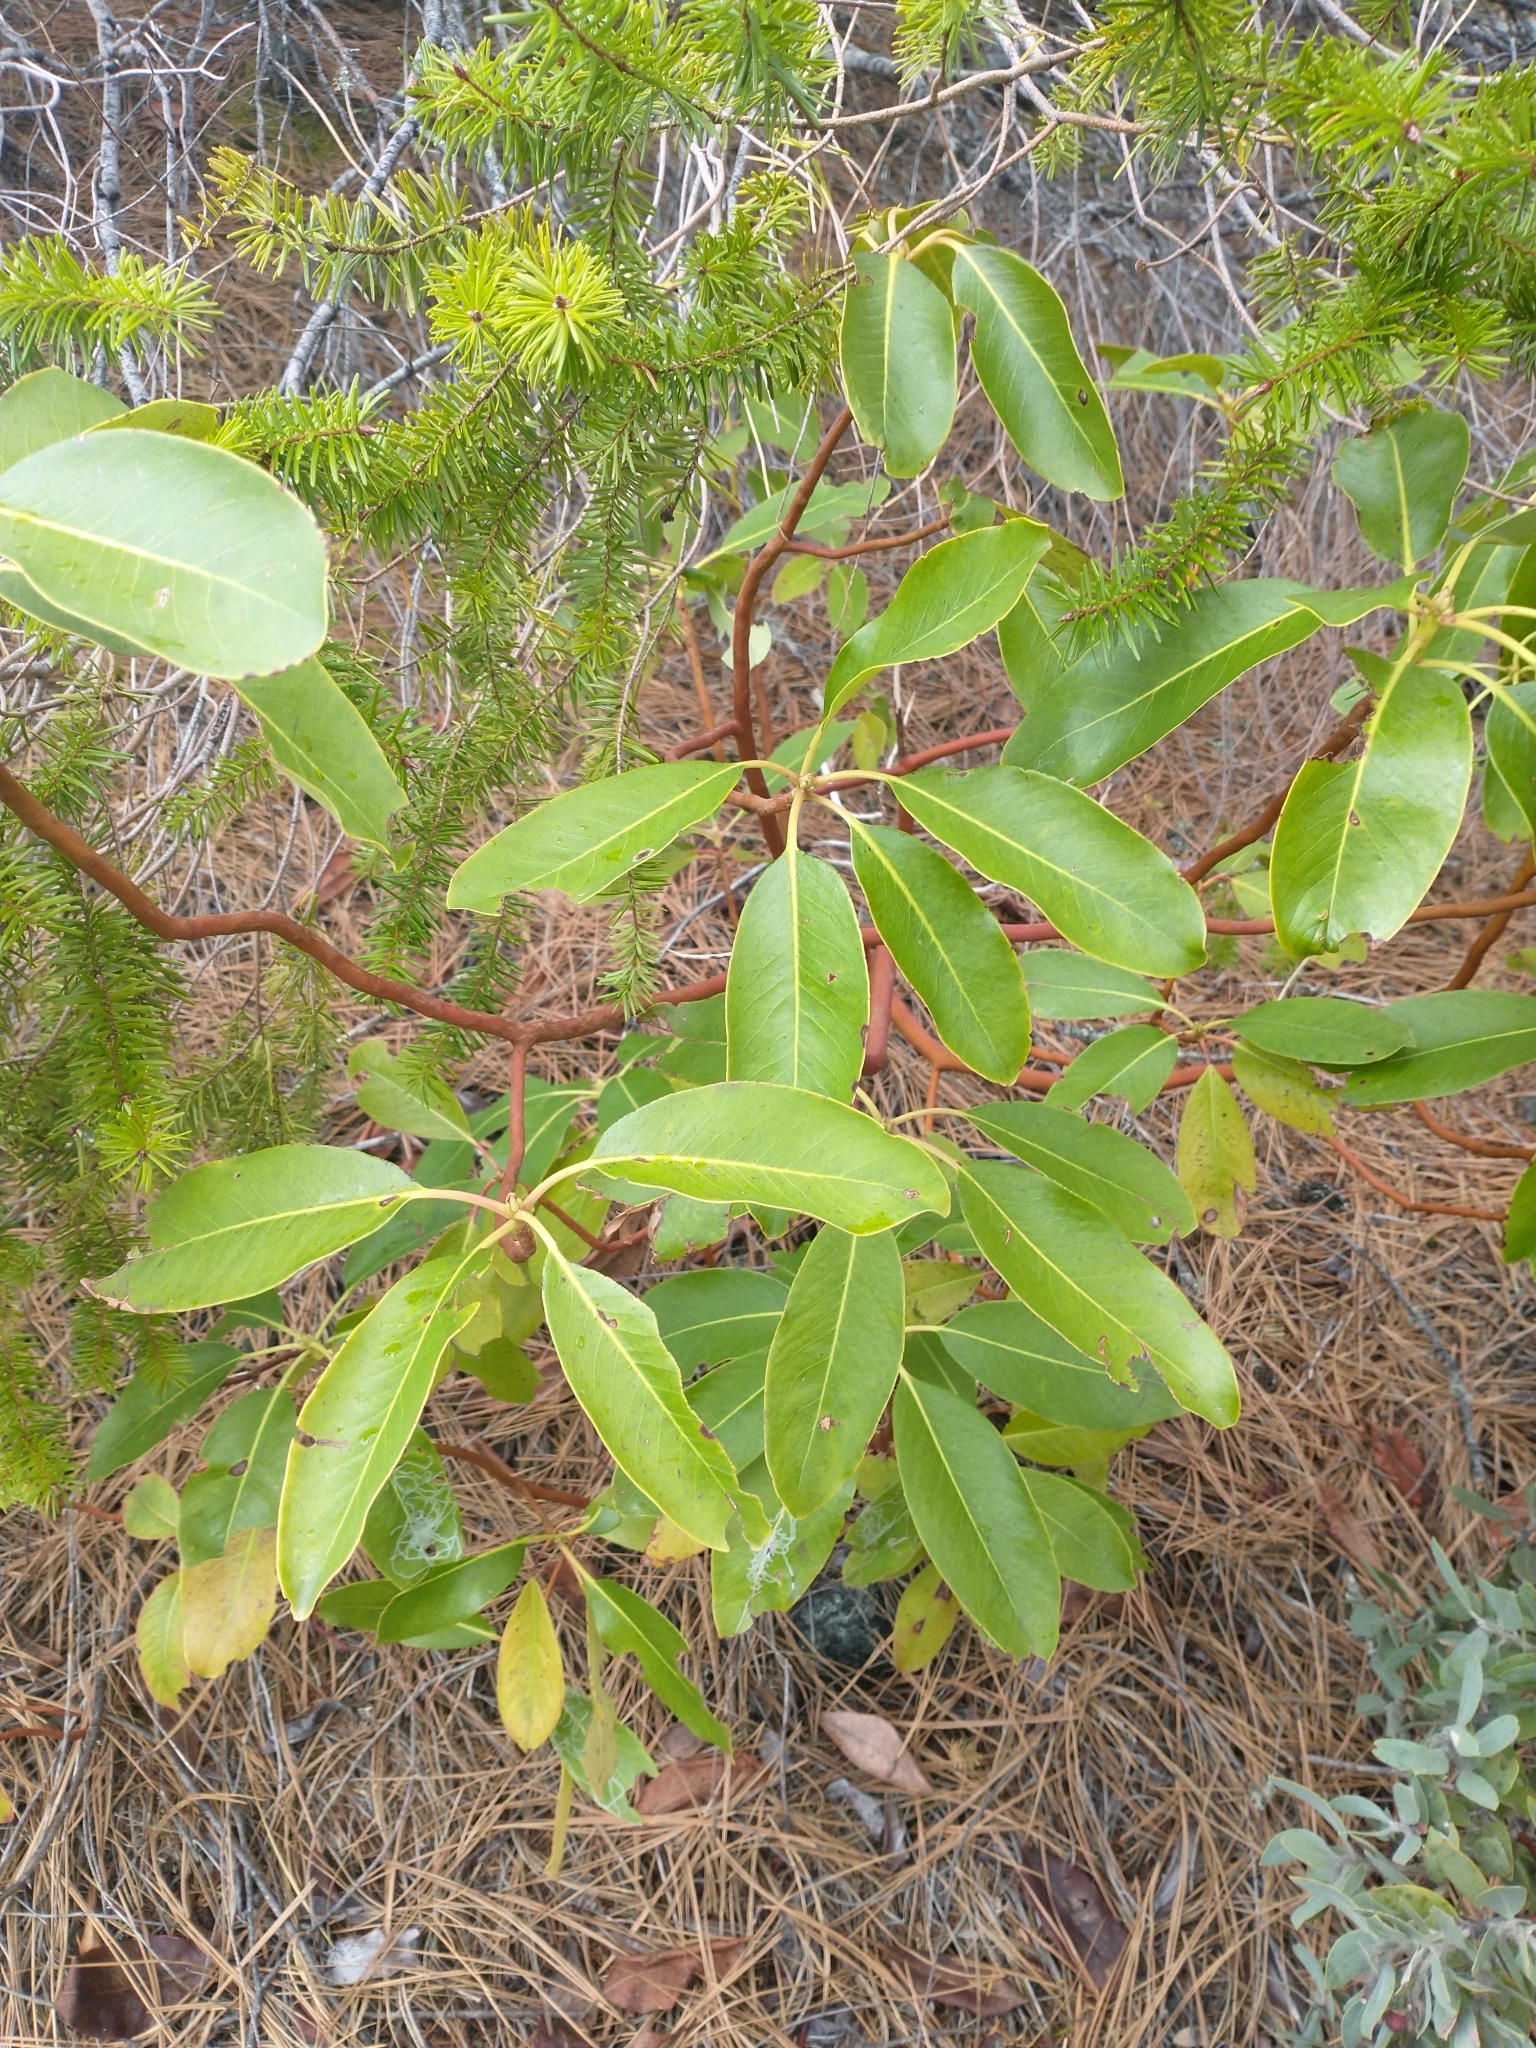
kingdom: Plantae
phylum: Tracheophyta
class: Magnoliopsida
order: Ericales
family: Ericaceae
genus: Arbutus
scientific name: Arbutus menziesii
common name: Pacific madrone
